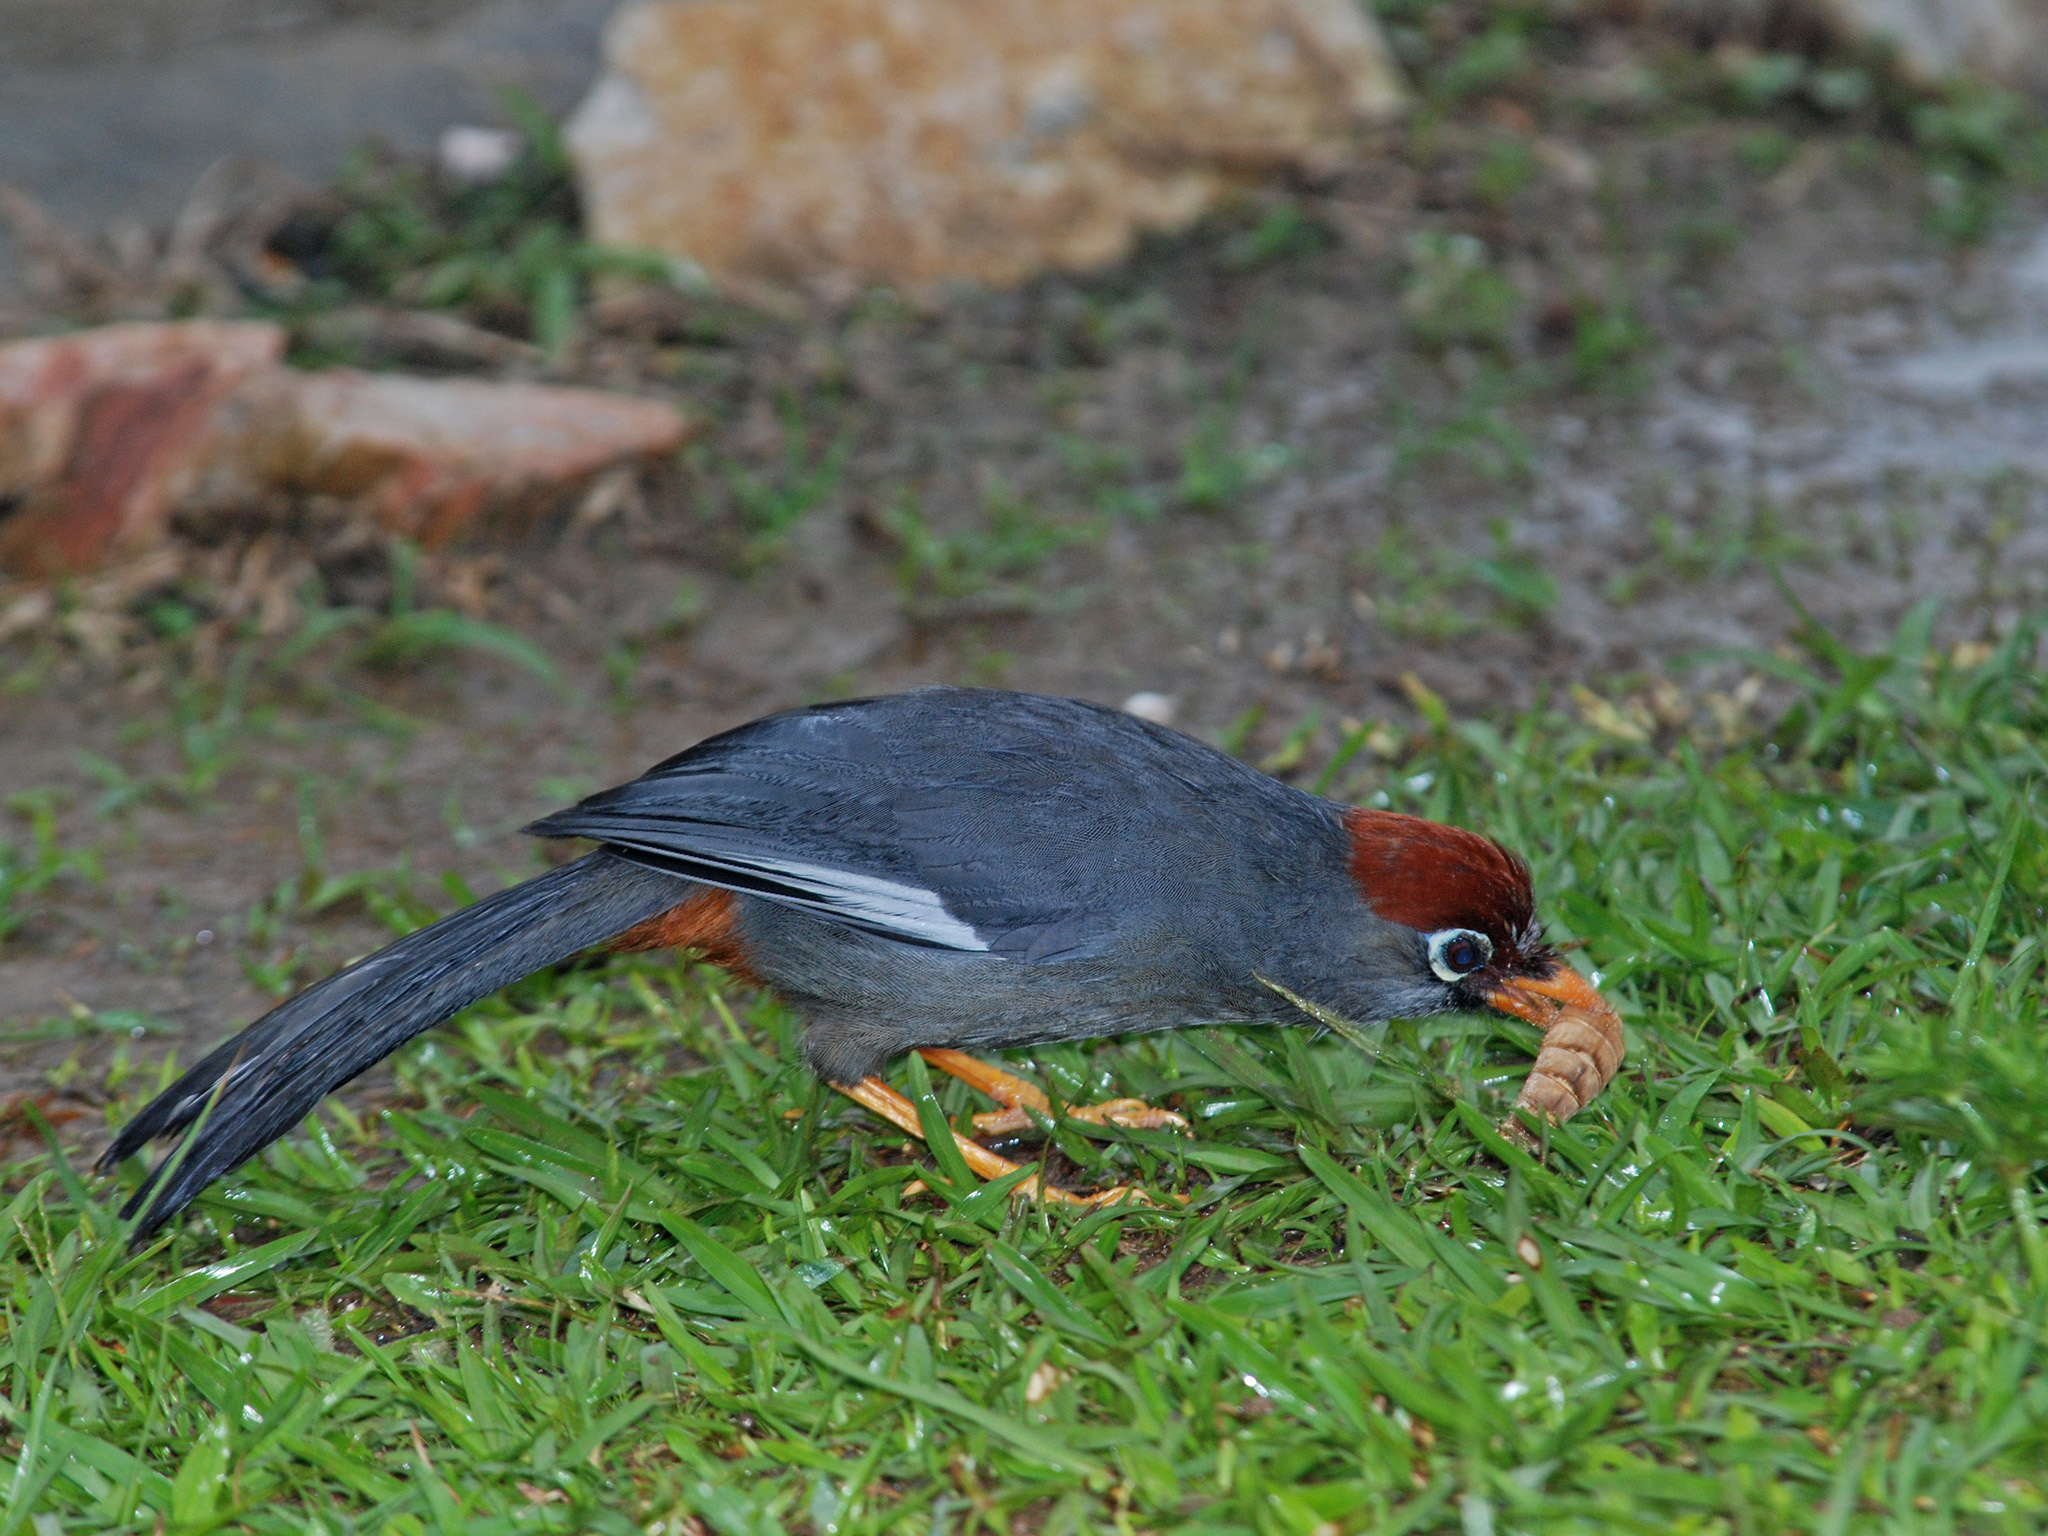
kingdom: Animalia
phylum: Chordata
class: Aves
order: Passeriformes
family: Leiothrichidae
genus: Garrulax
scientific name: Garrulax mitratus
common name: Chestnut-capped laughingthrush
